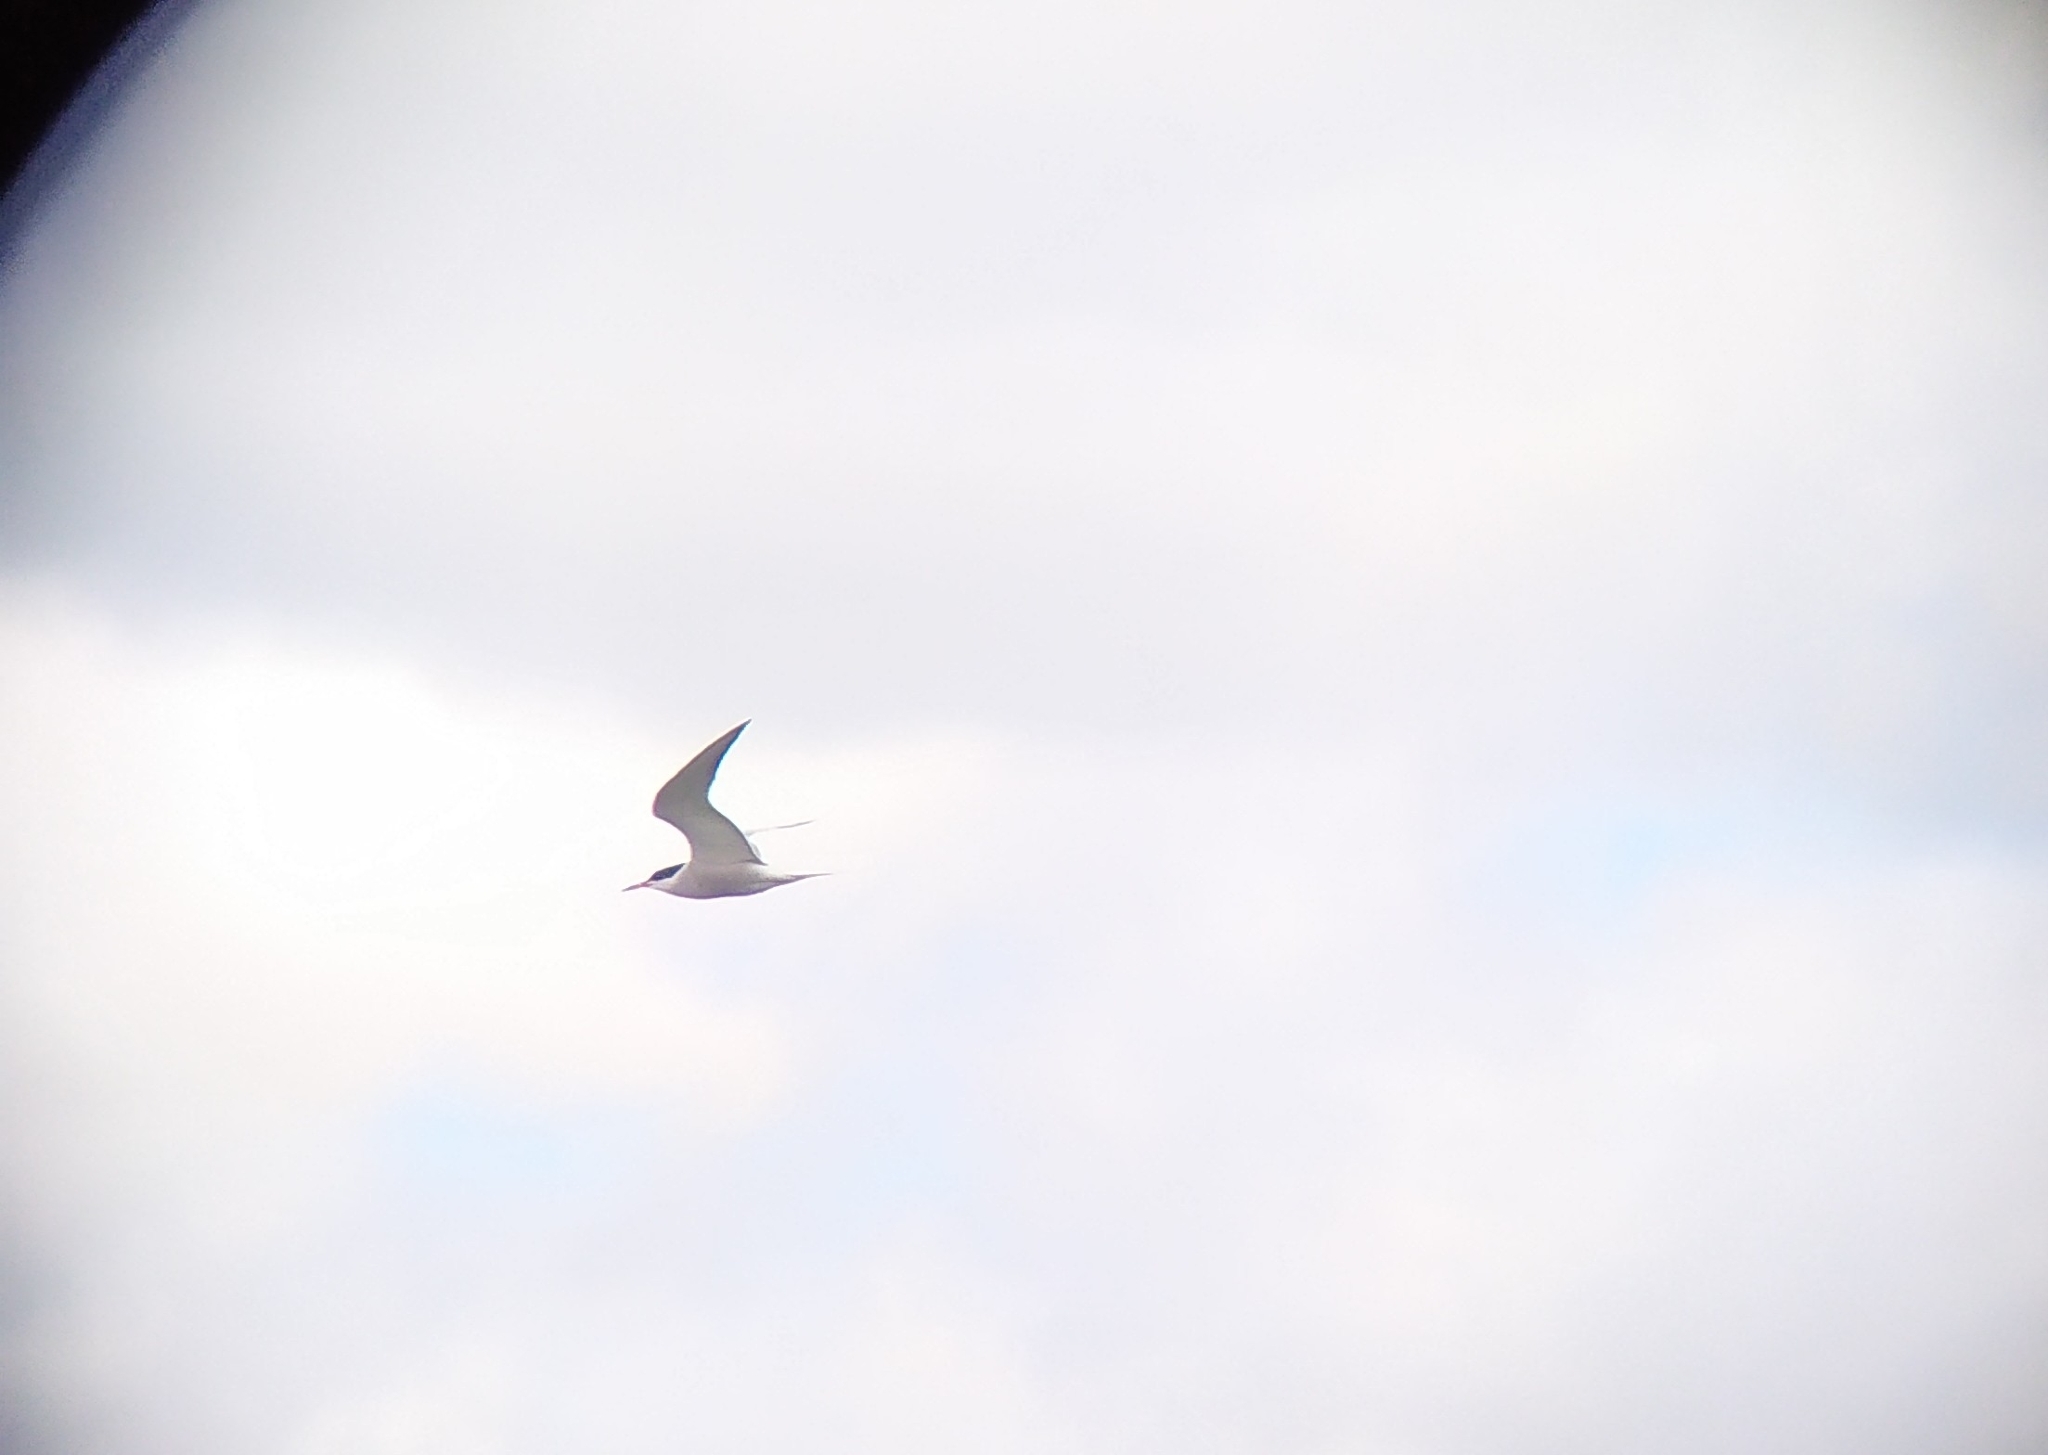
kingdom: Animalia
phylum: Chordata
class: Aves
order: Charadriiformes
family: Laridae
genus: Sterna
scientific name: Sterna hirundo
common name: Common tern
